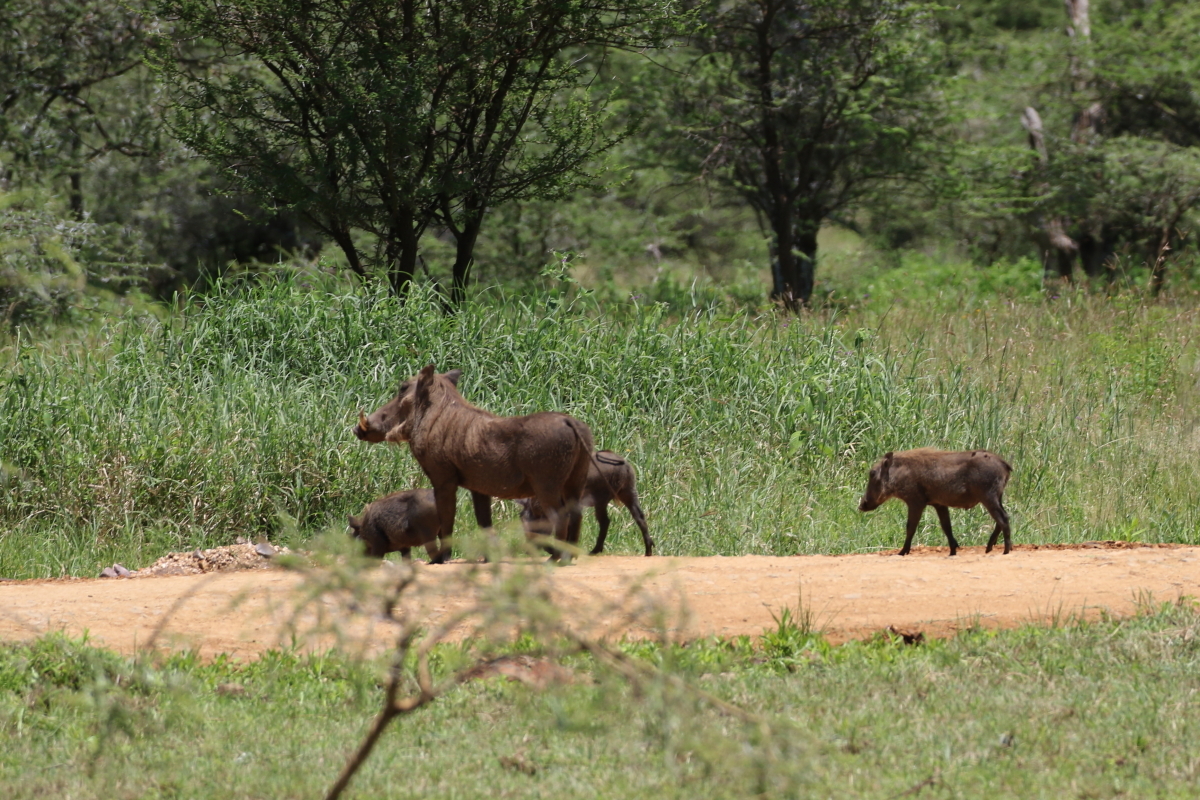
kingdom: Animalia
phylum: Chordata
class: Mammalia
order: Artiodactyla
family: Suidae
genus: Phacochoerus
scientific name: Phacochoerus africanus
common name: Common warthog
